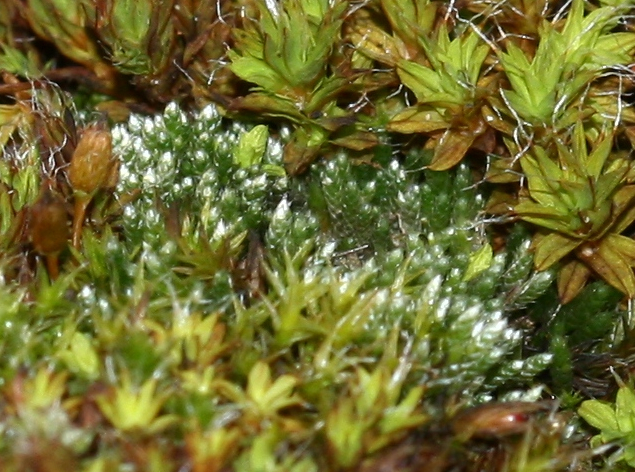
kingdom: Plantae
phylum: Bryophyta
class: Bryopsida
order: Bryales
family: Bryaceae
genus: Bryum
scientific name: Bryum argenteum
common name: Silver-moss
